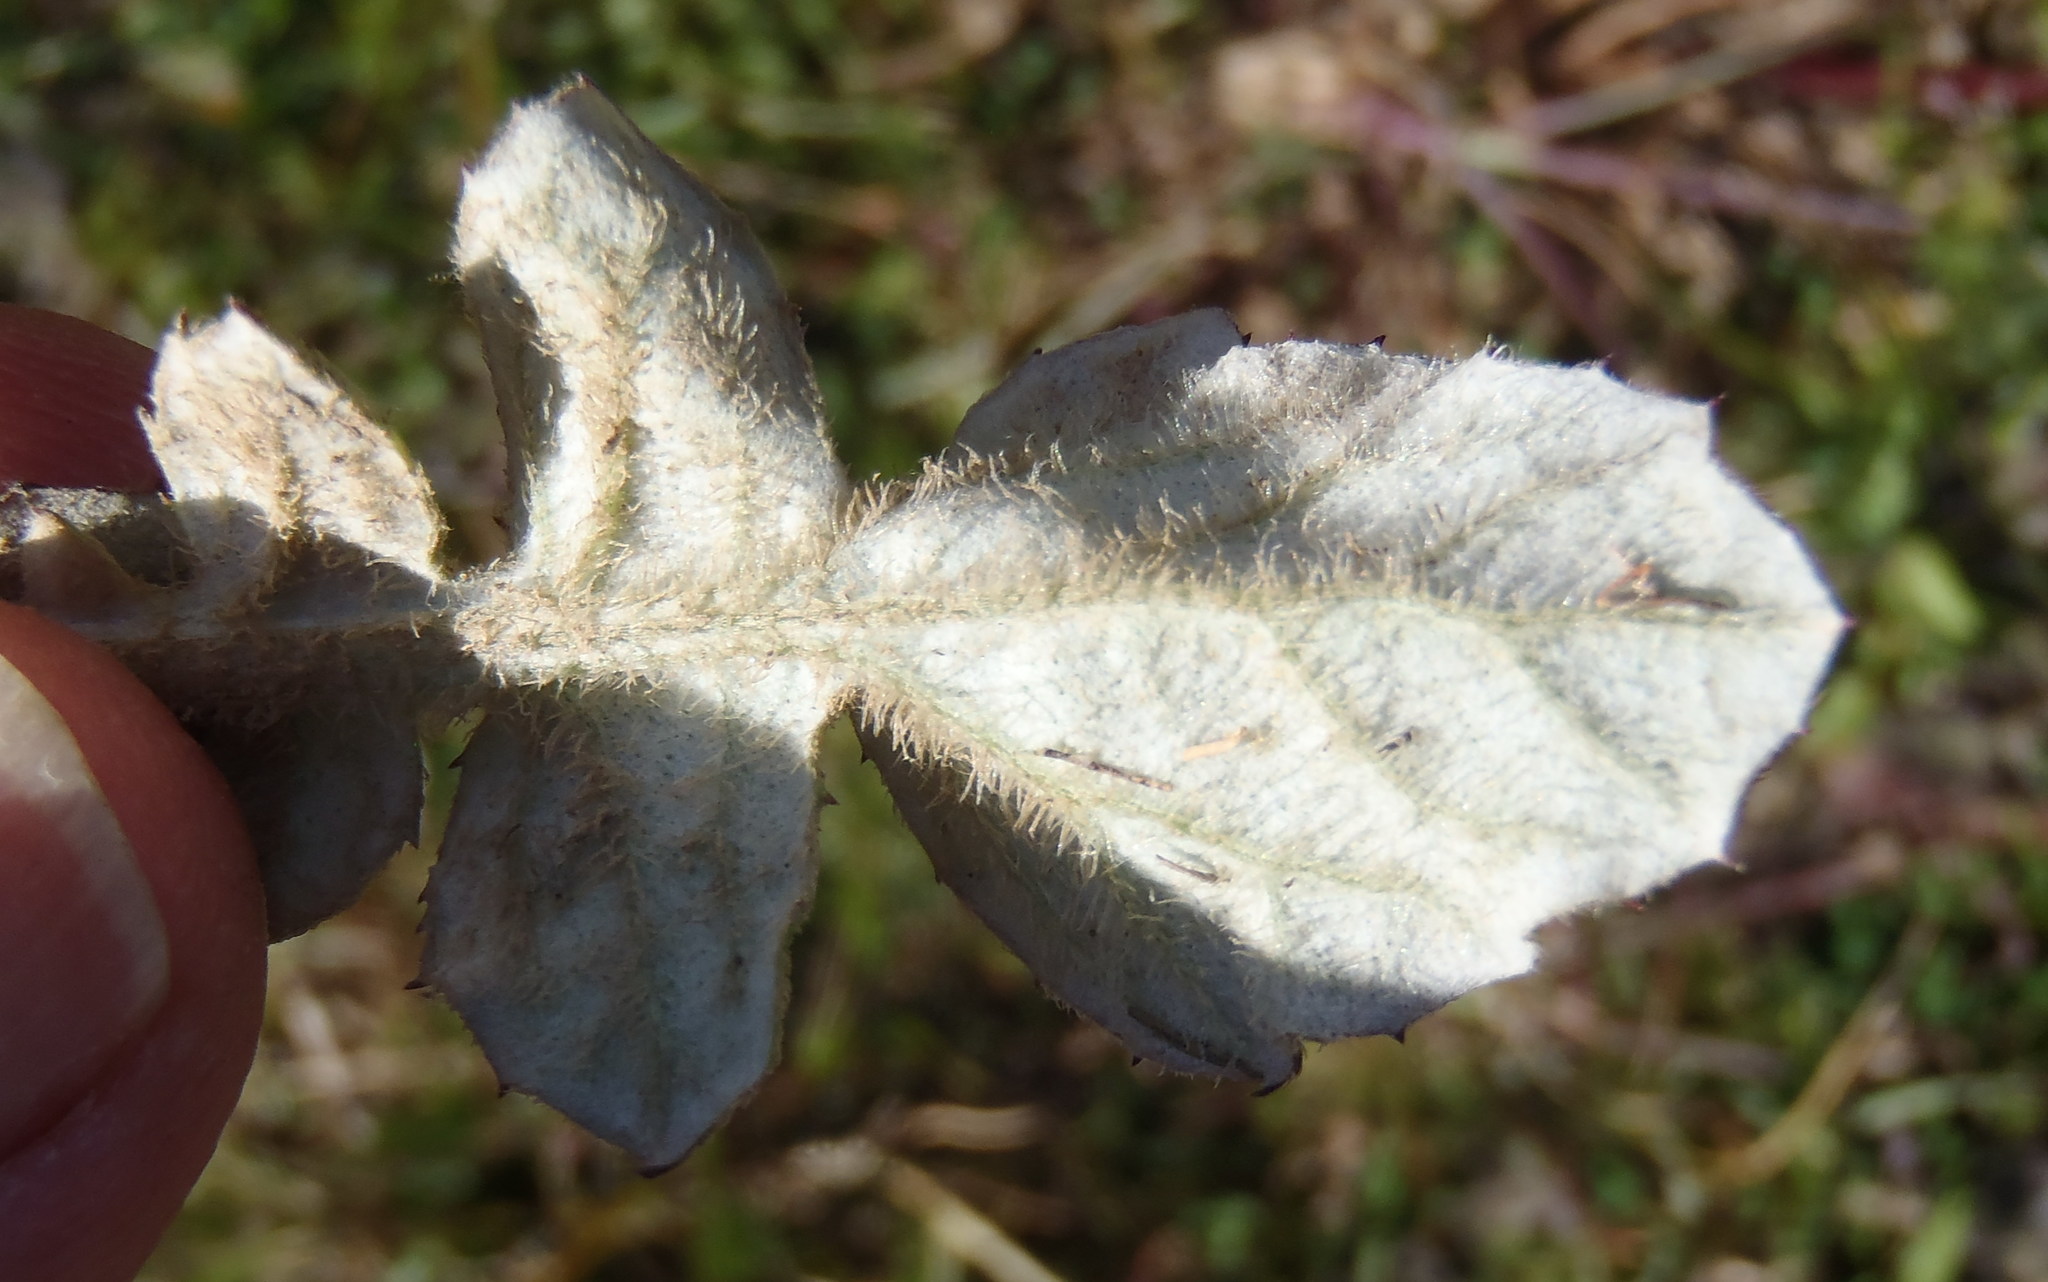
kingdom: Plantae
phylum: Tracheophyta
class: Magnoliopsida
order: Asterales
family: Asteraceae
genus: Arctotheca
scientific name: Arctotheca prostrata
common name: Capeweed
